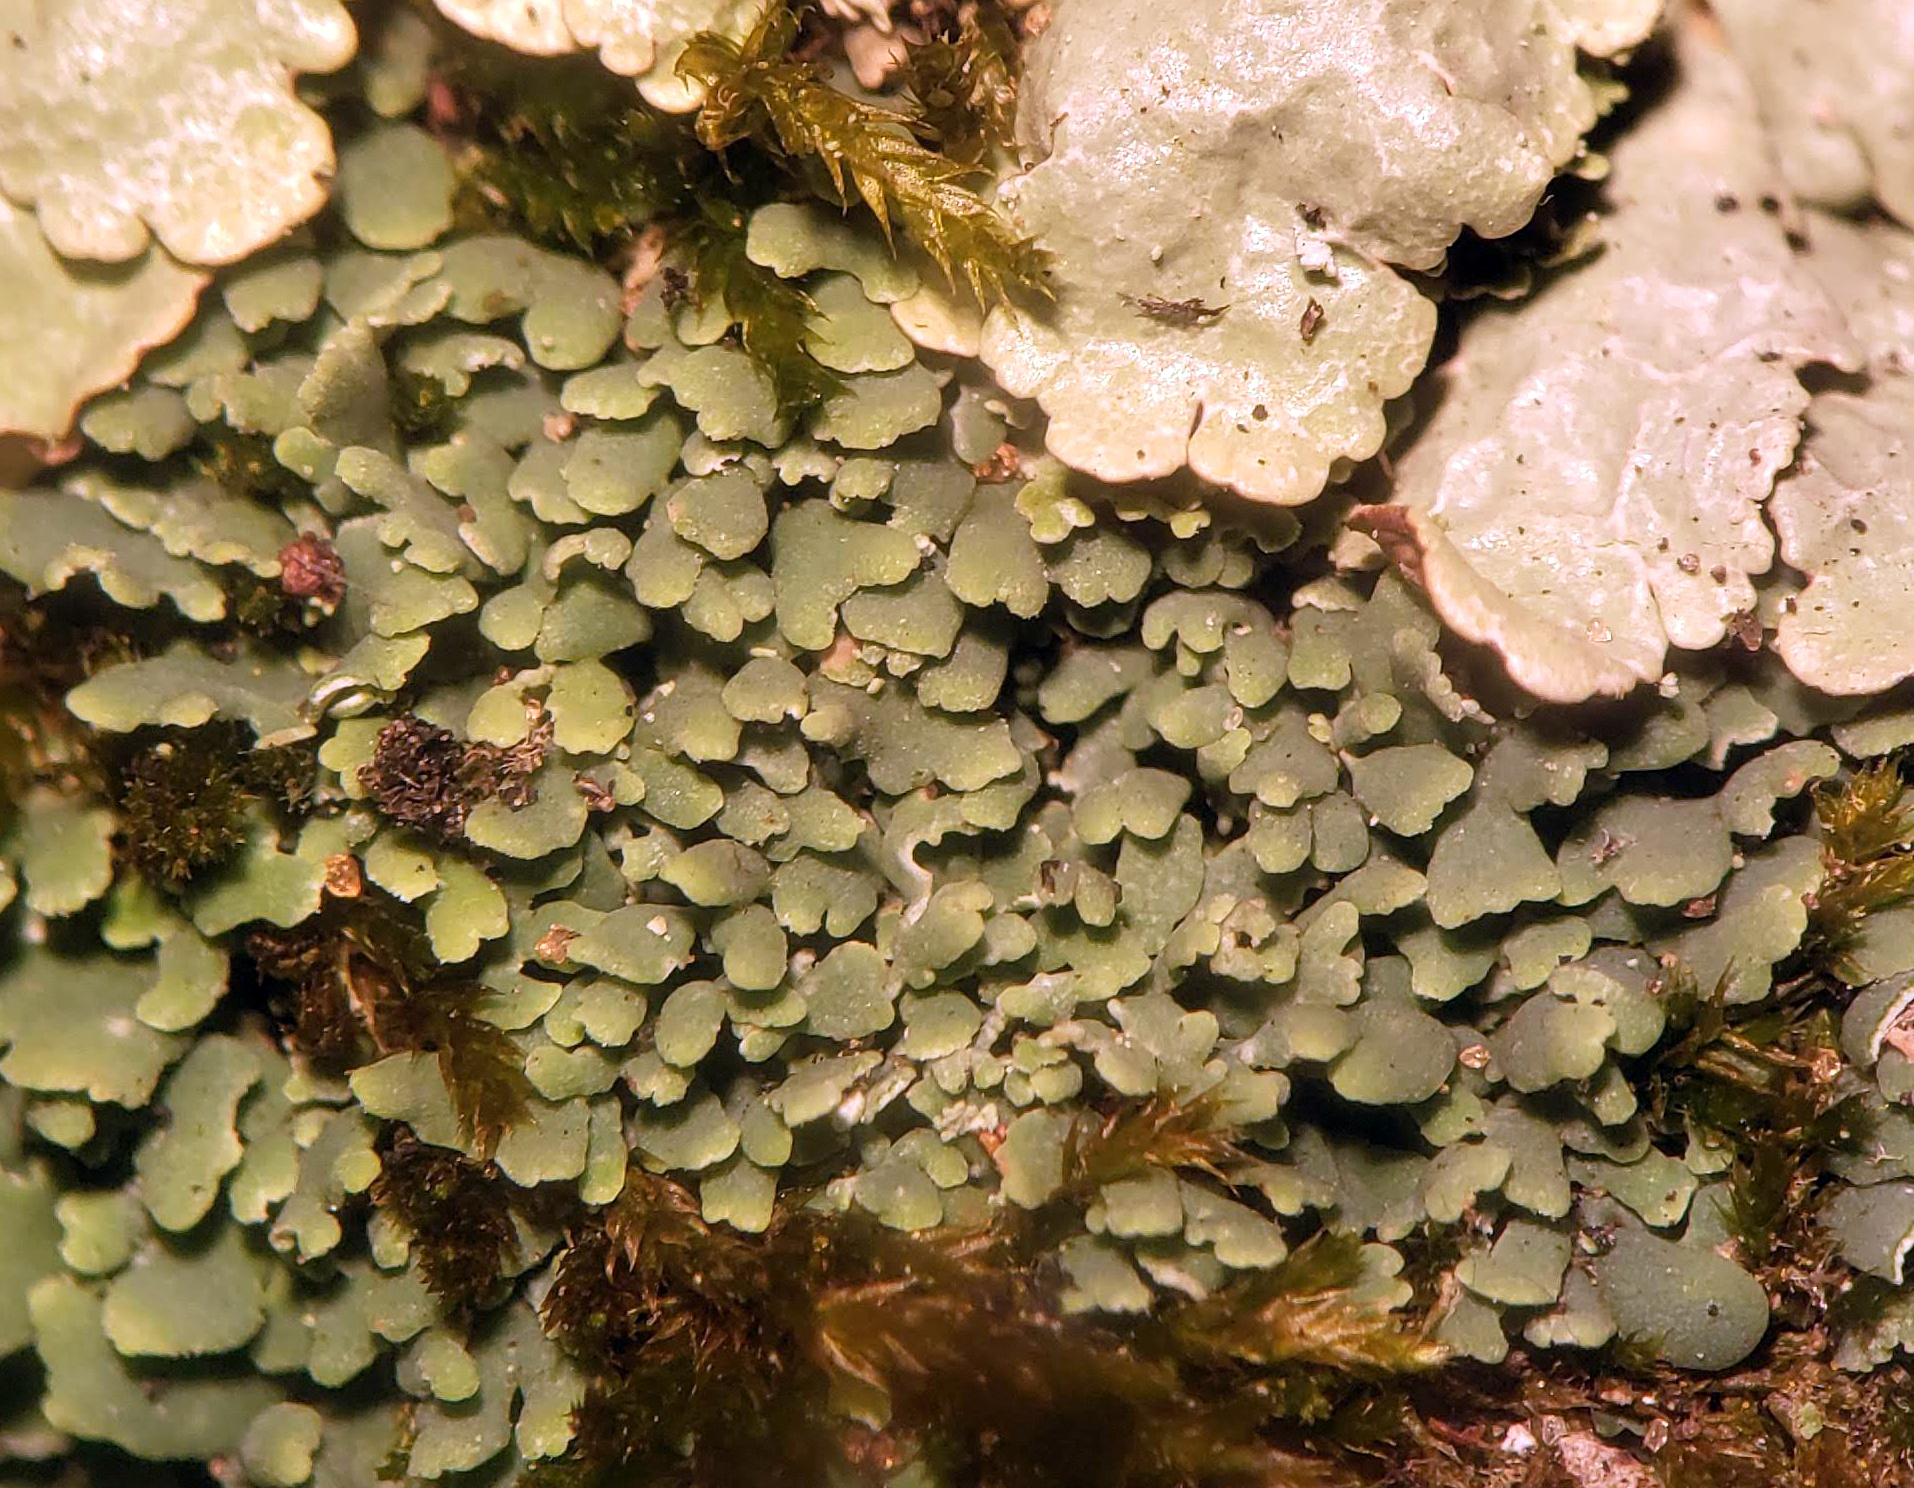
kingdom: Fungi
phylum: Ascomycota
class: Lecanoromycetes
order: Lecanorales
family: Cladoniaceae
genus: Cladonia
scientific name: Cladonia apodocarpa
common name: Stalkless cladonia
